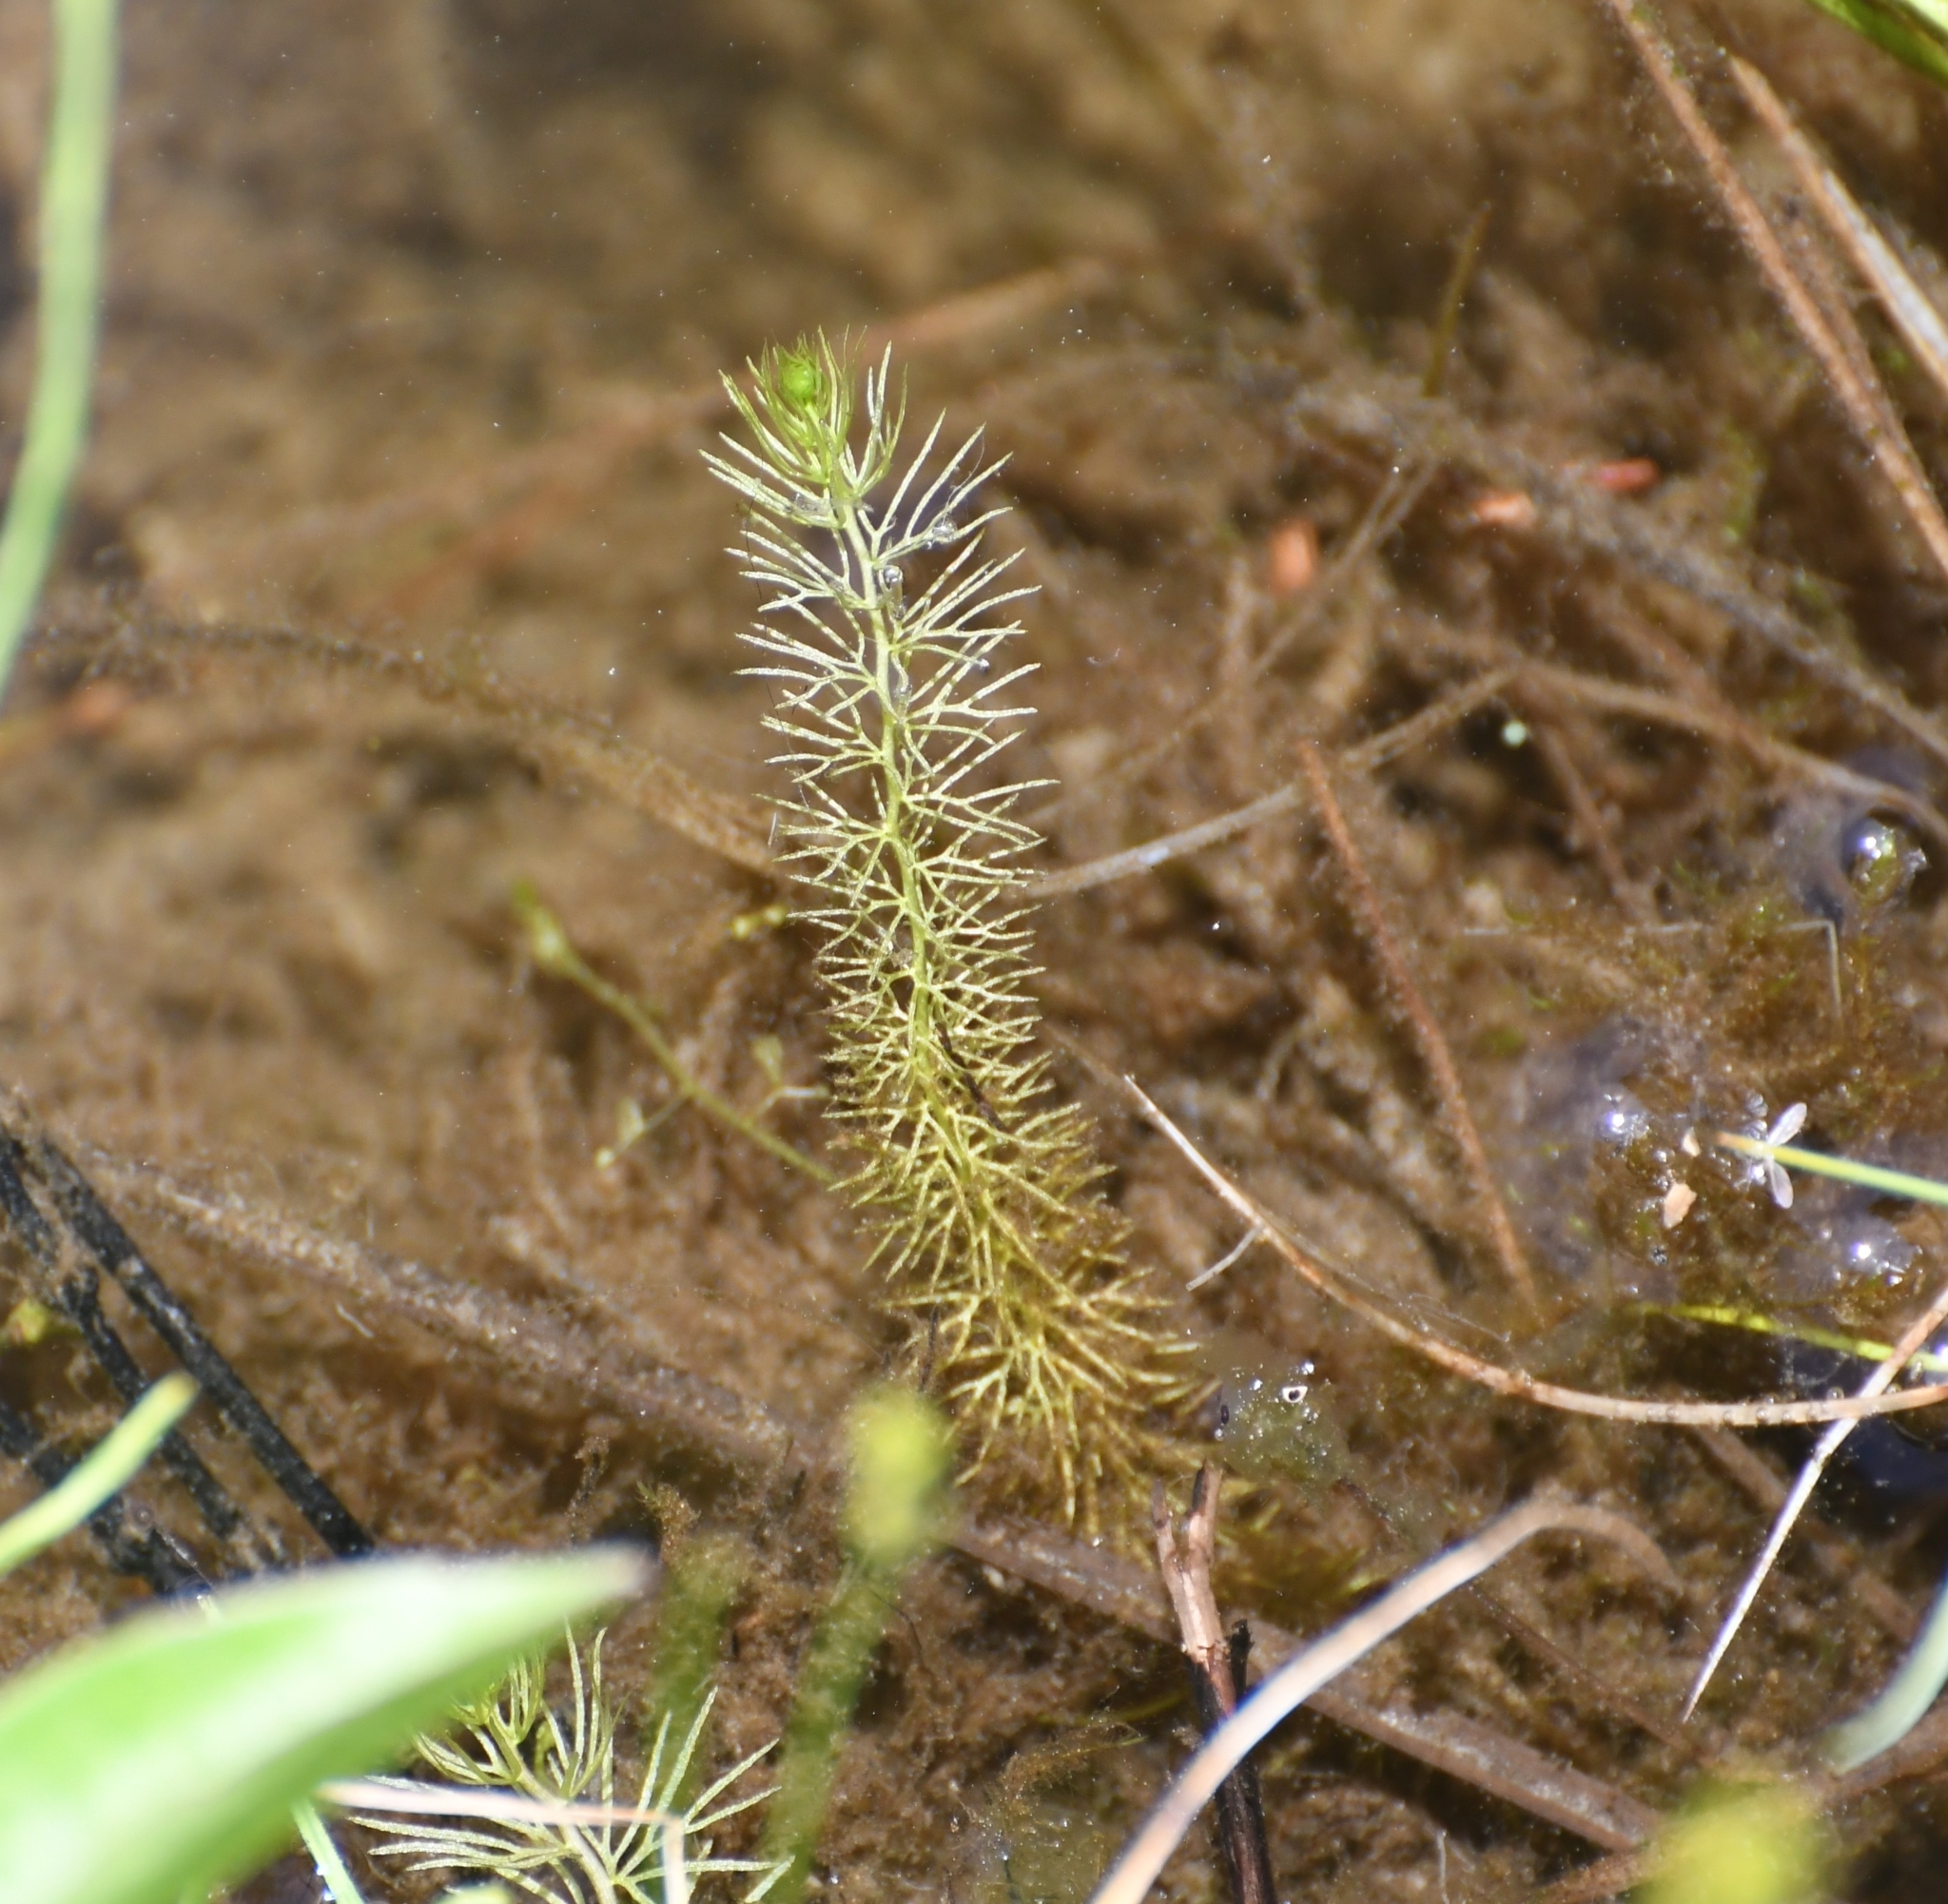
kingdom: Plantae
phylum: Tracheophyta
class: Magnoliopsida
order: Lamiales
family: Lentibulariaceae
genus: Utricularia
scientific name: Utricularia intermedia
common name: Intermediate bladderwort
